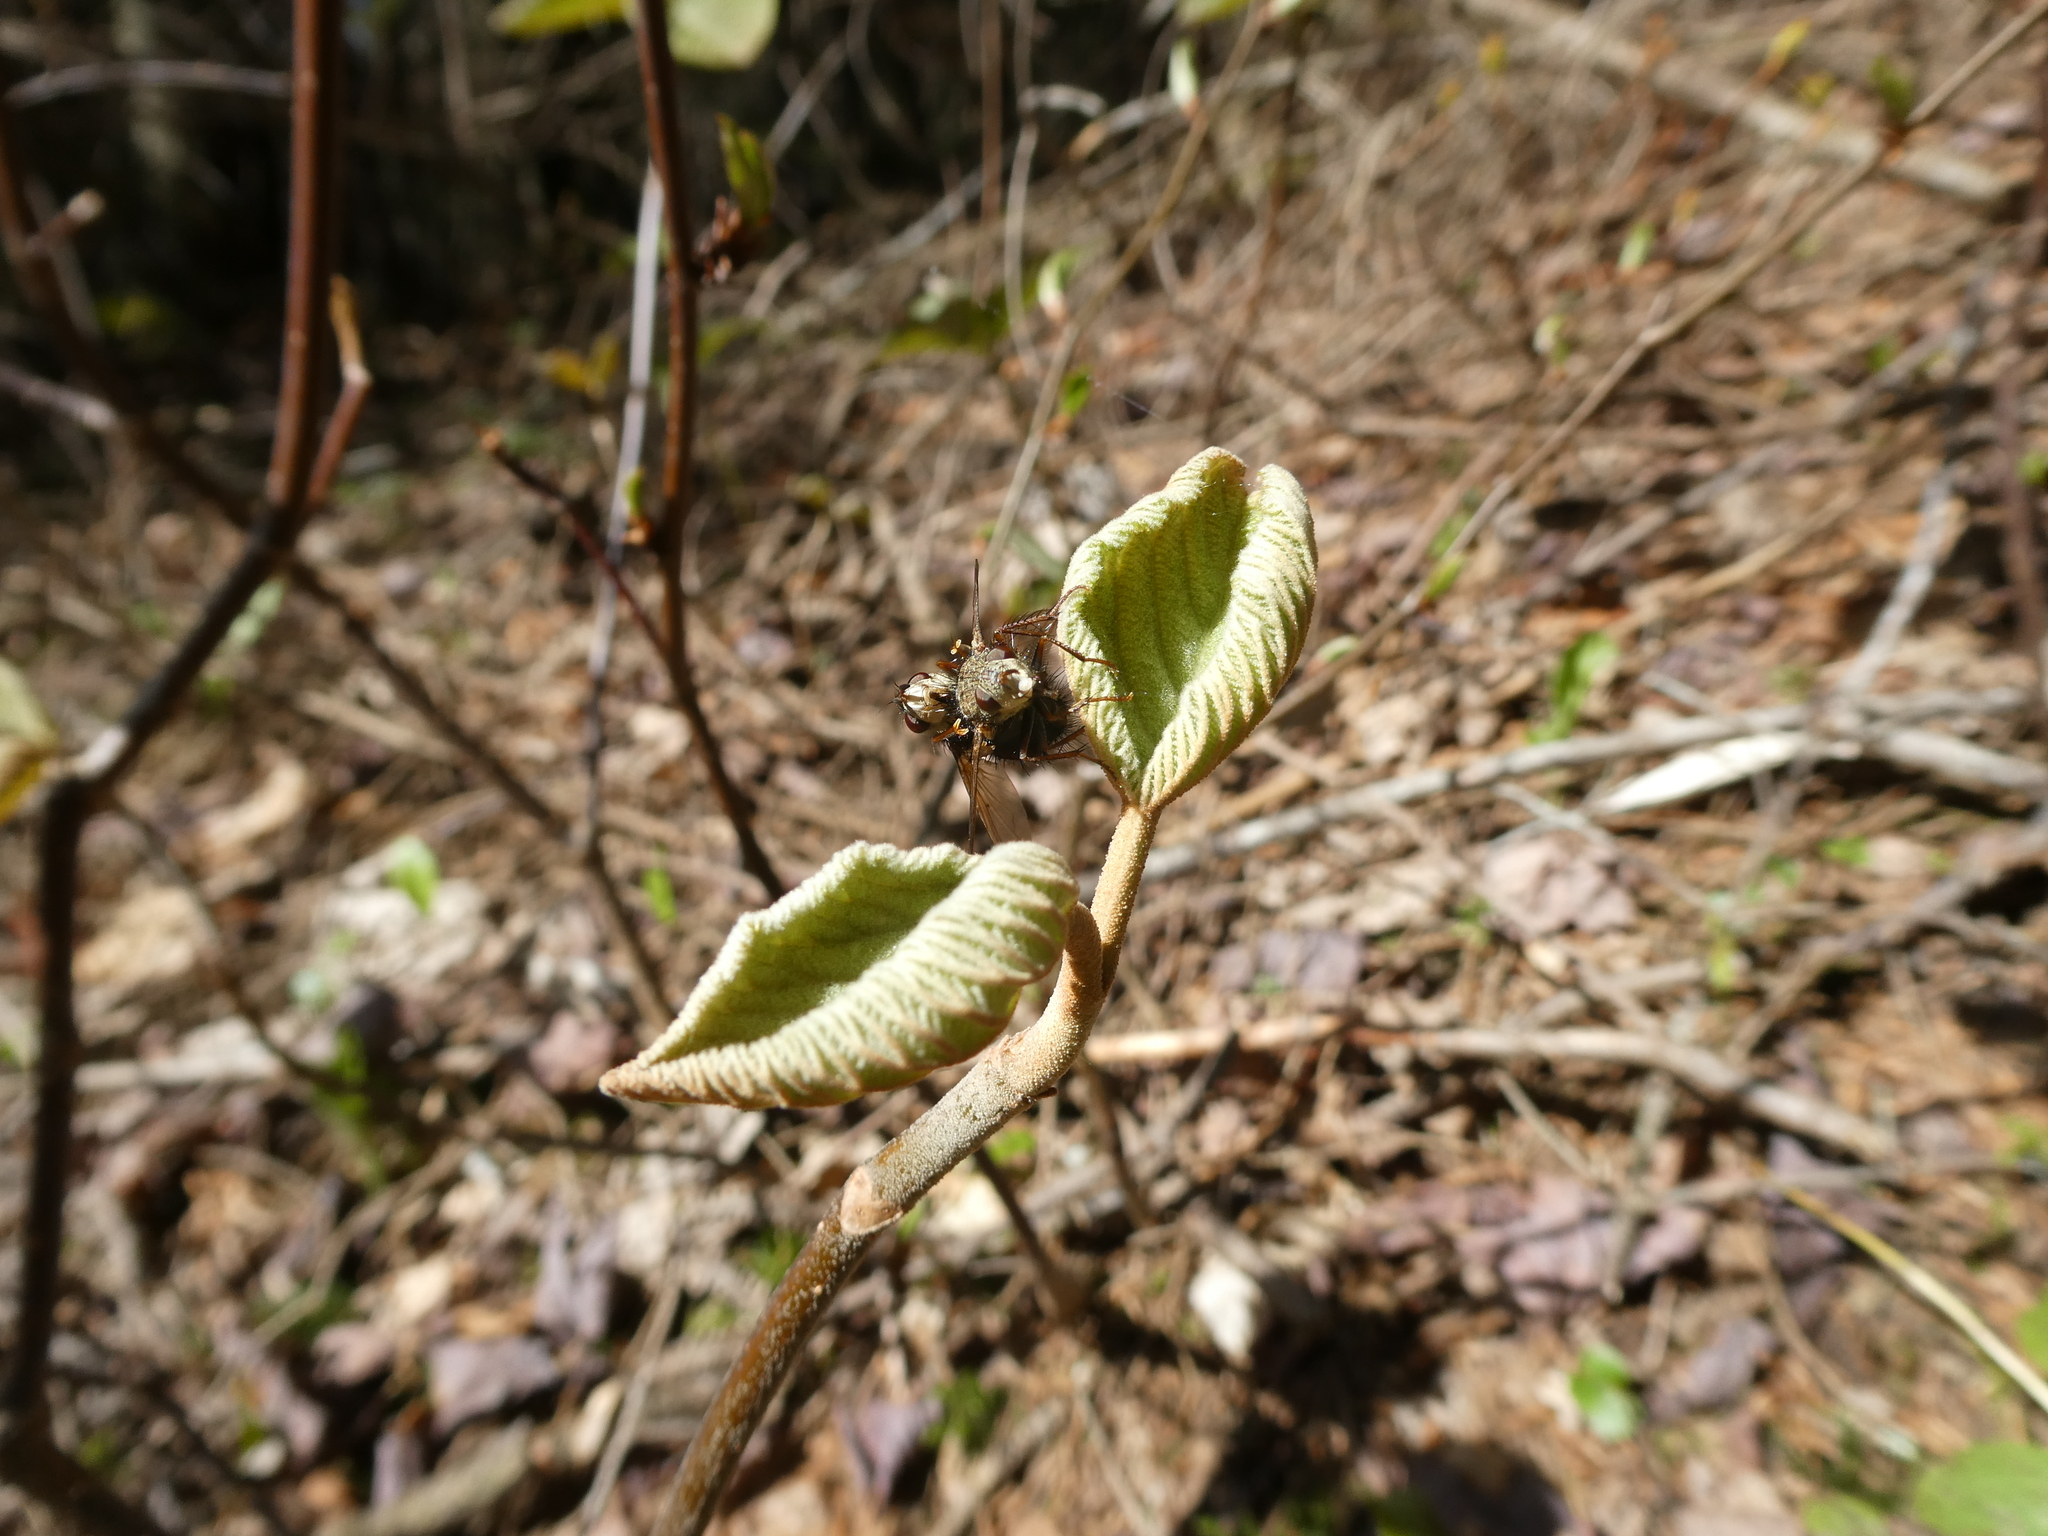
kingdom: Animalia
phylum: Arthropoda
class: Insecta
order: Diptera
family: Tachinidae
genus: Epalpus
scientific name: Epalpus signifer
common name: Early tachinid fly
